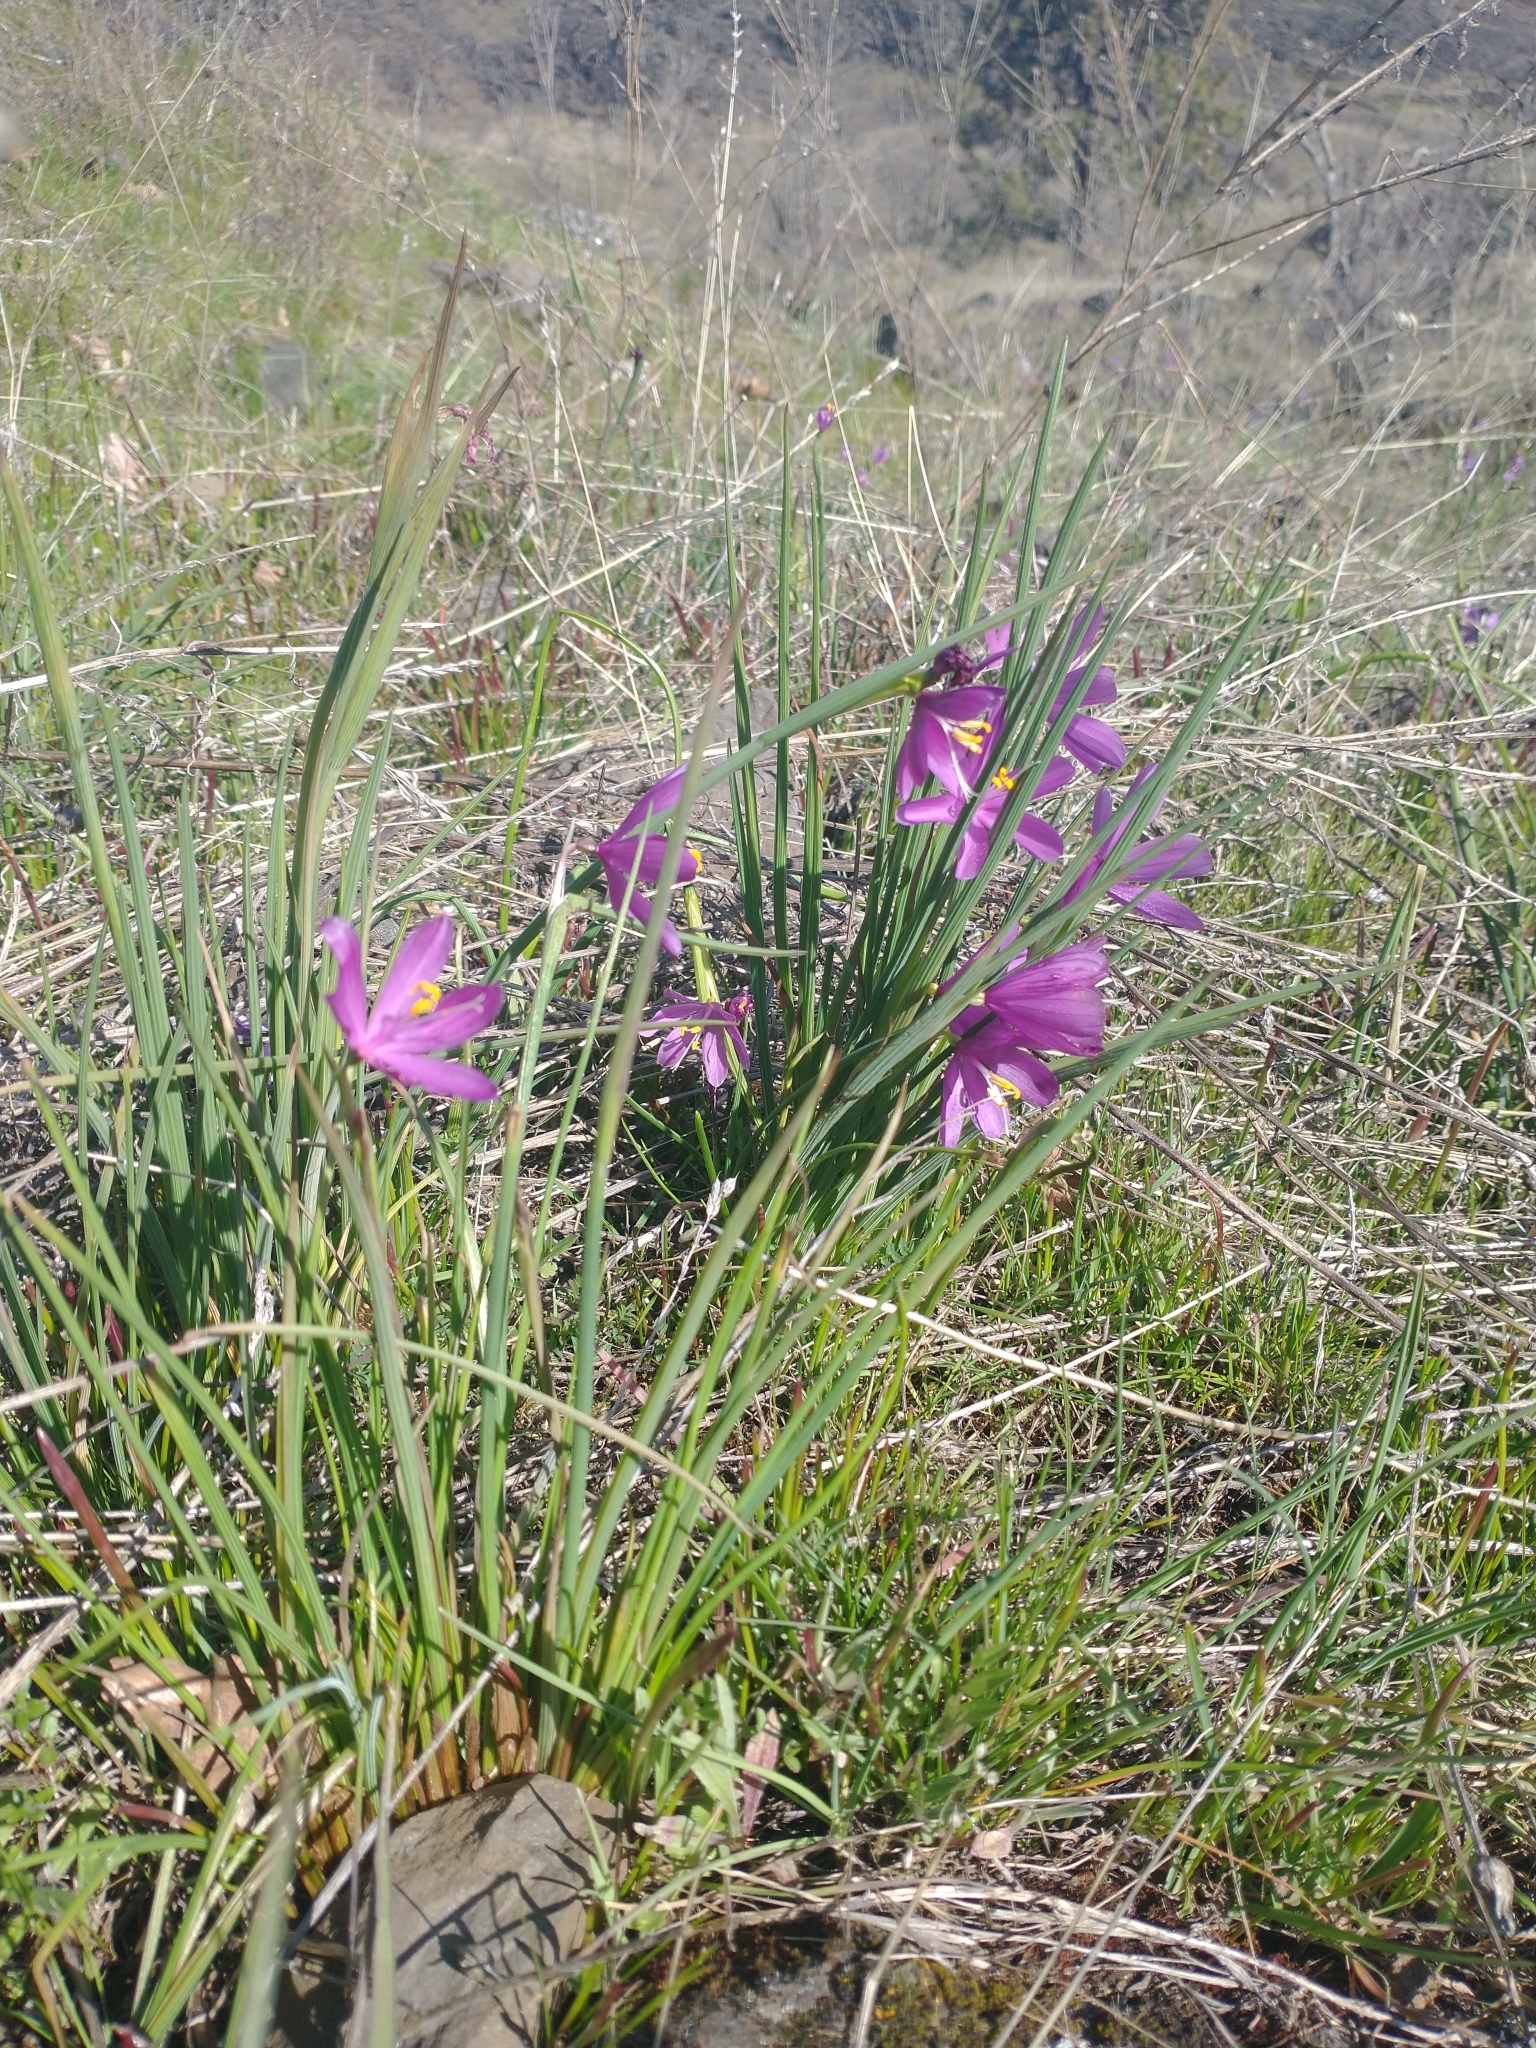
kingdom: Plantae
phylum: Tracheophyta
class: Liliopsida
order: Asparagales
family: Iridaceae
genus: Olsynium
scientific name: Olsynium douglasii
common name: Douglas' grasswidow
